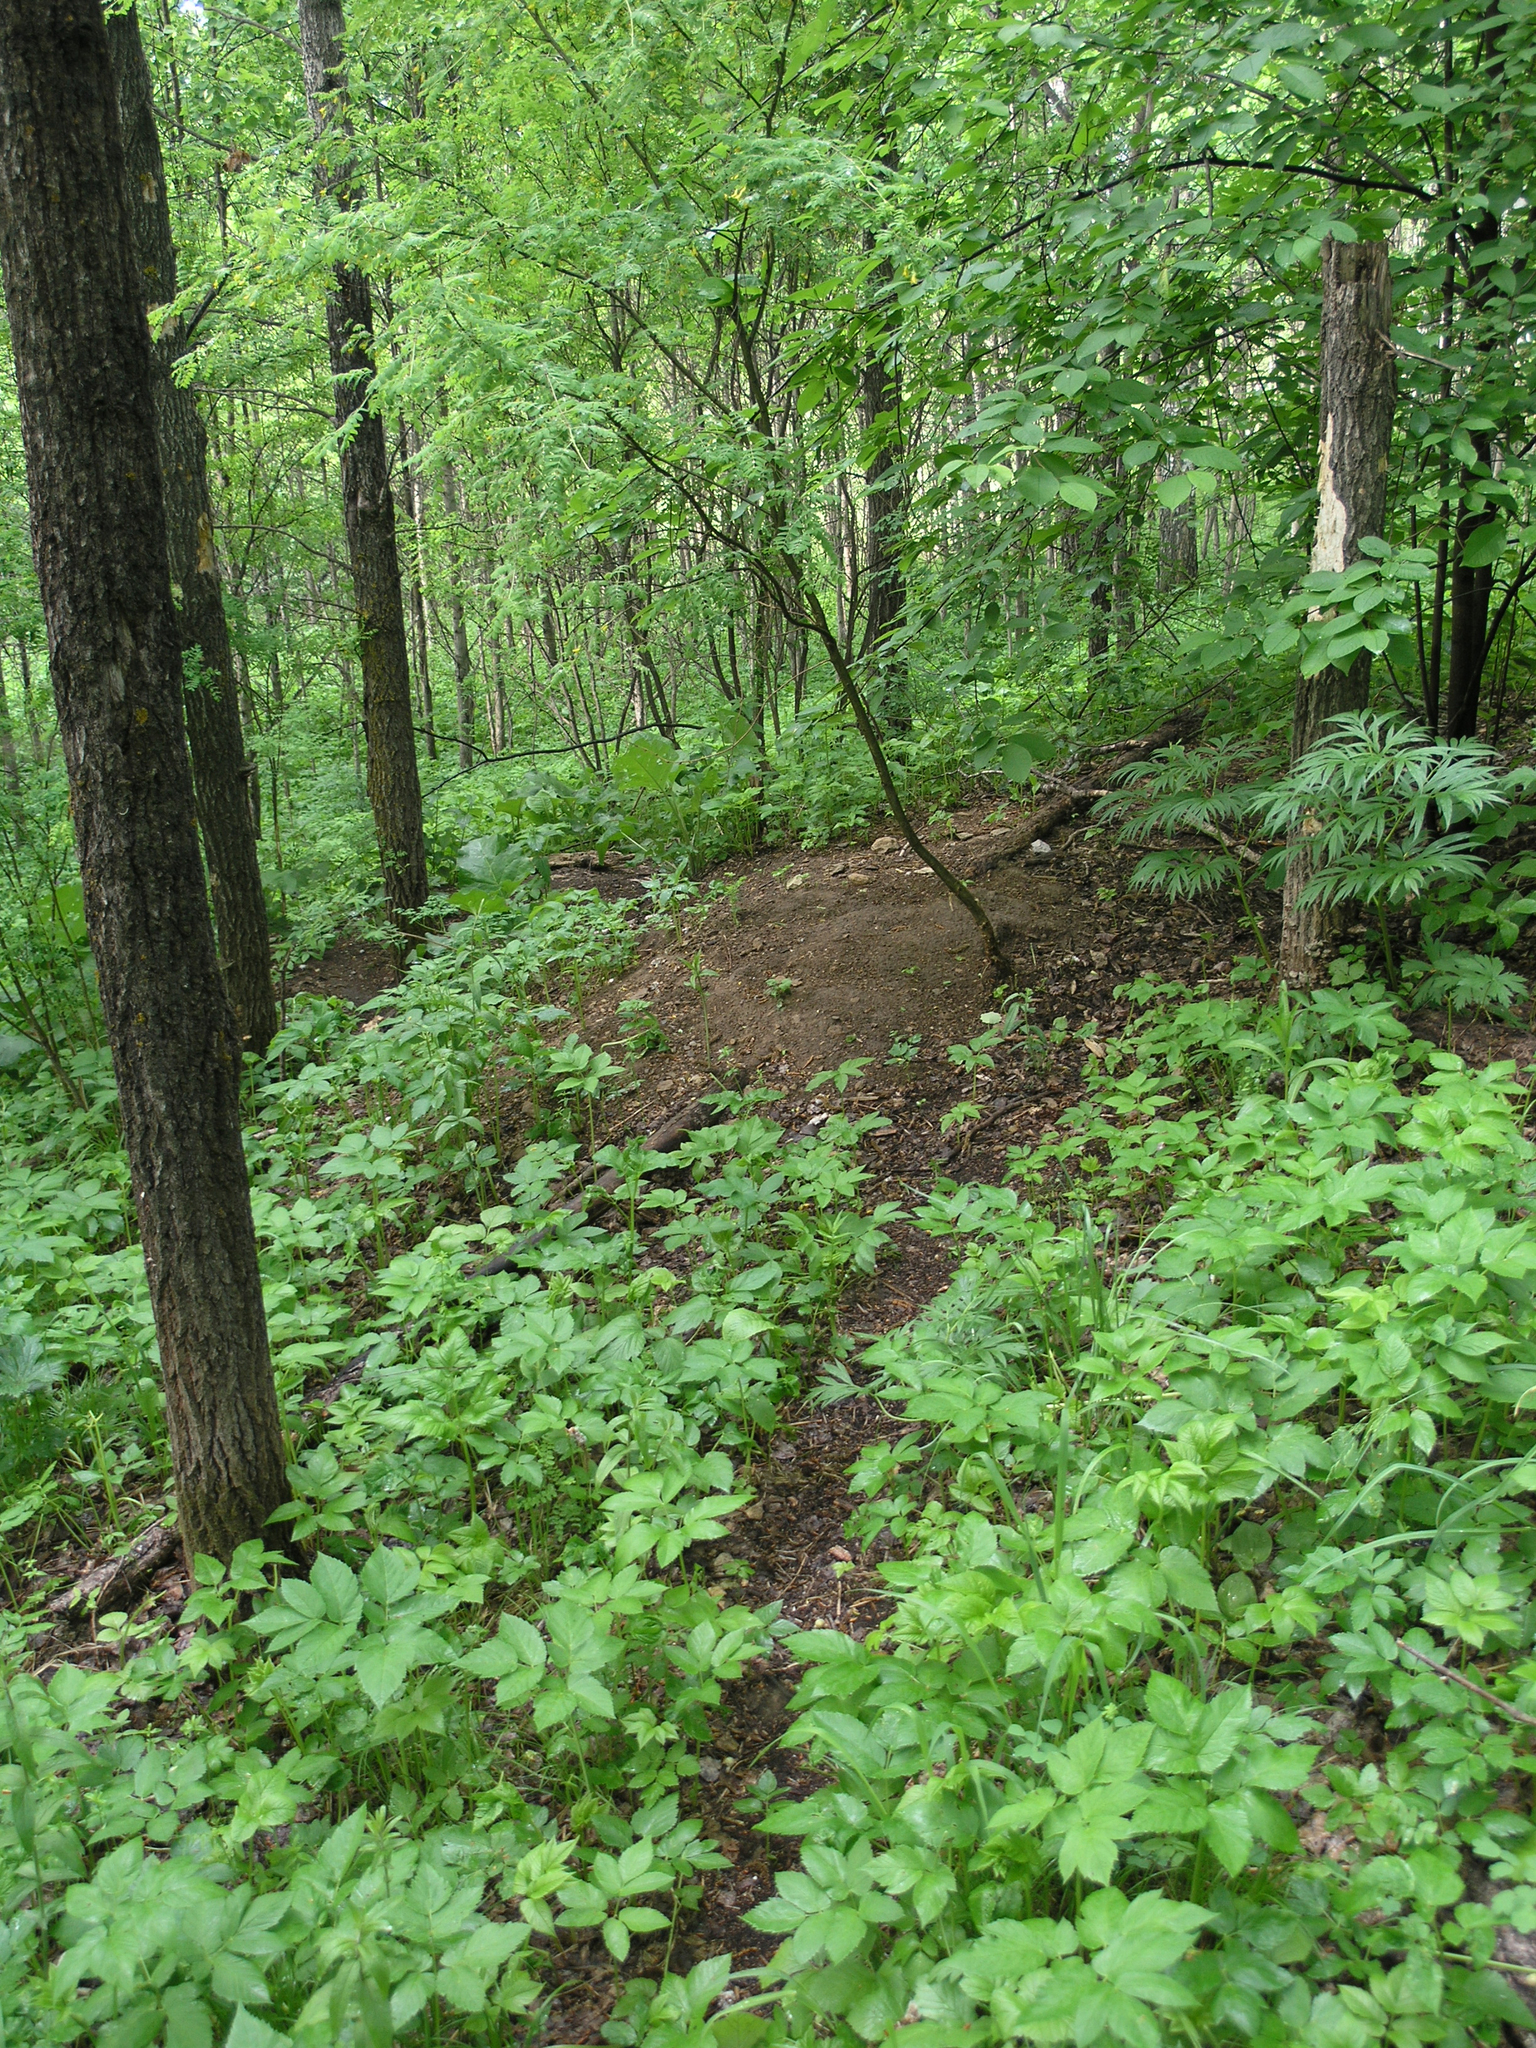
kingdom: Plantae
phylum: Tracheophyta
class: Magnoliopsida
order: Malpighiales
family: Salicaceae
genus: Populus
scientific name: Populus tremula
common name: European aspen
